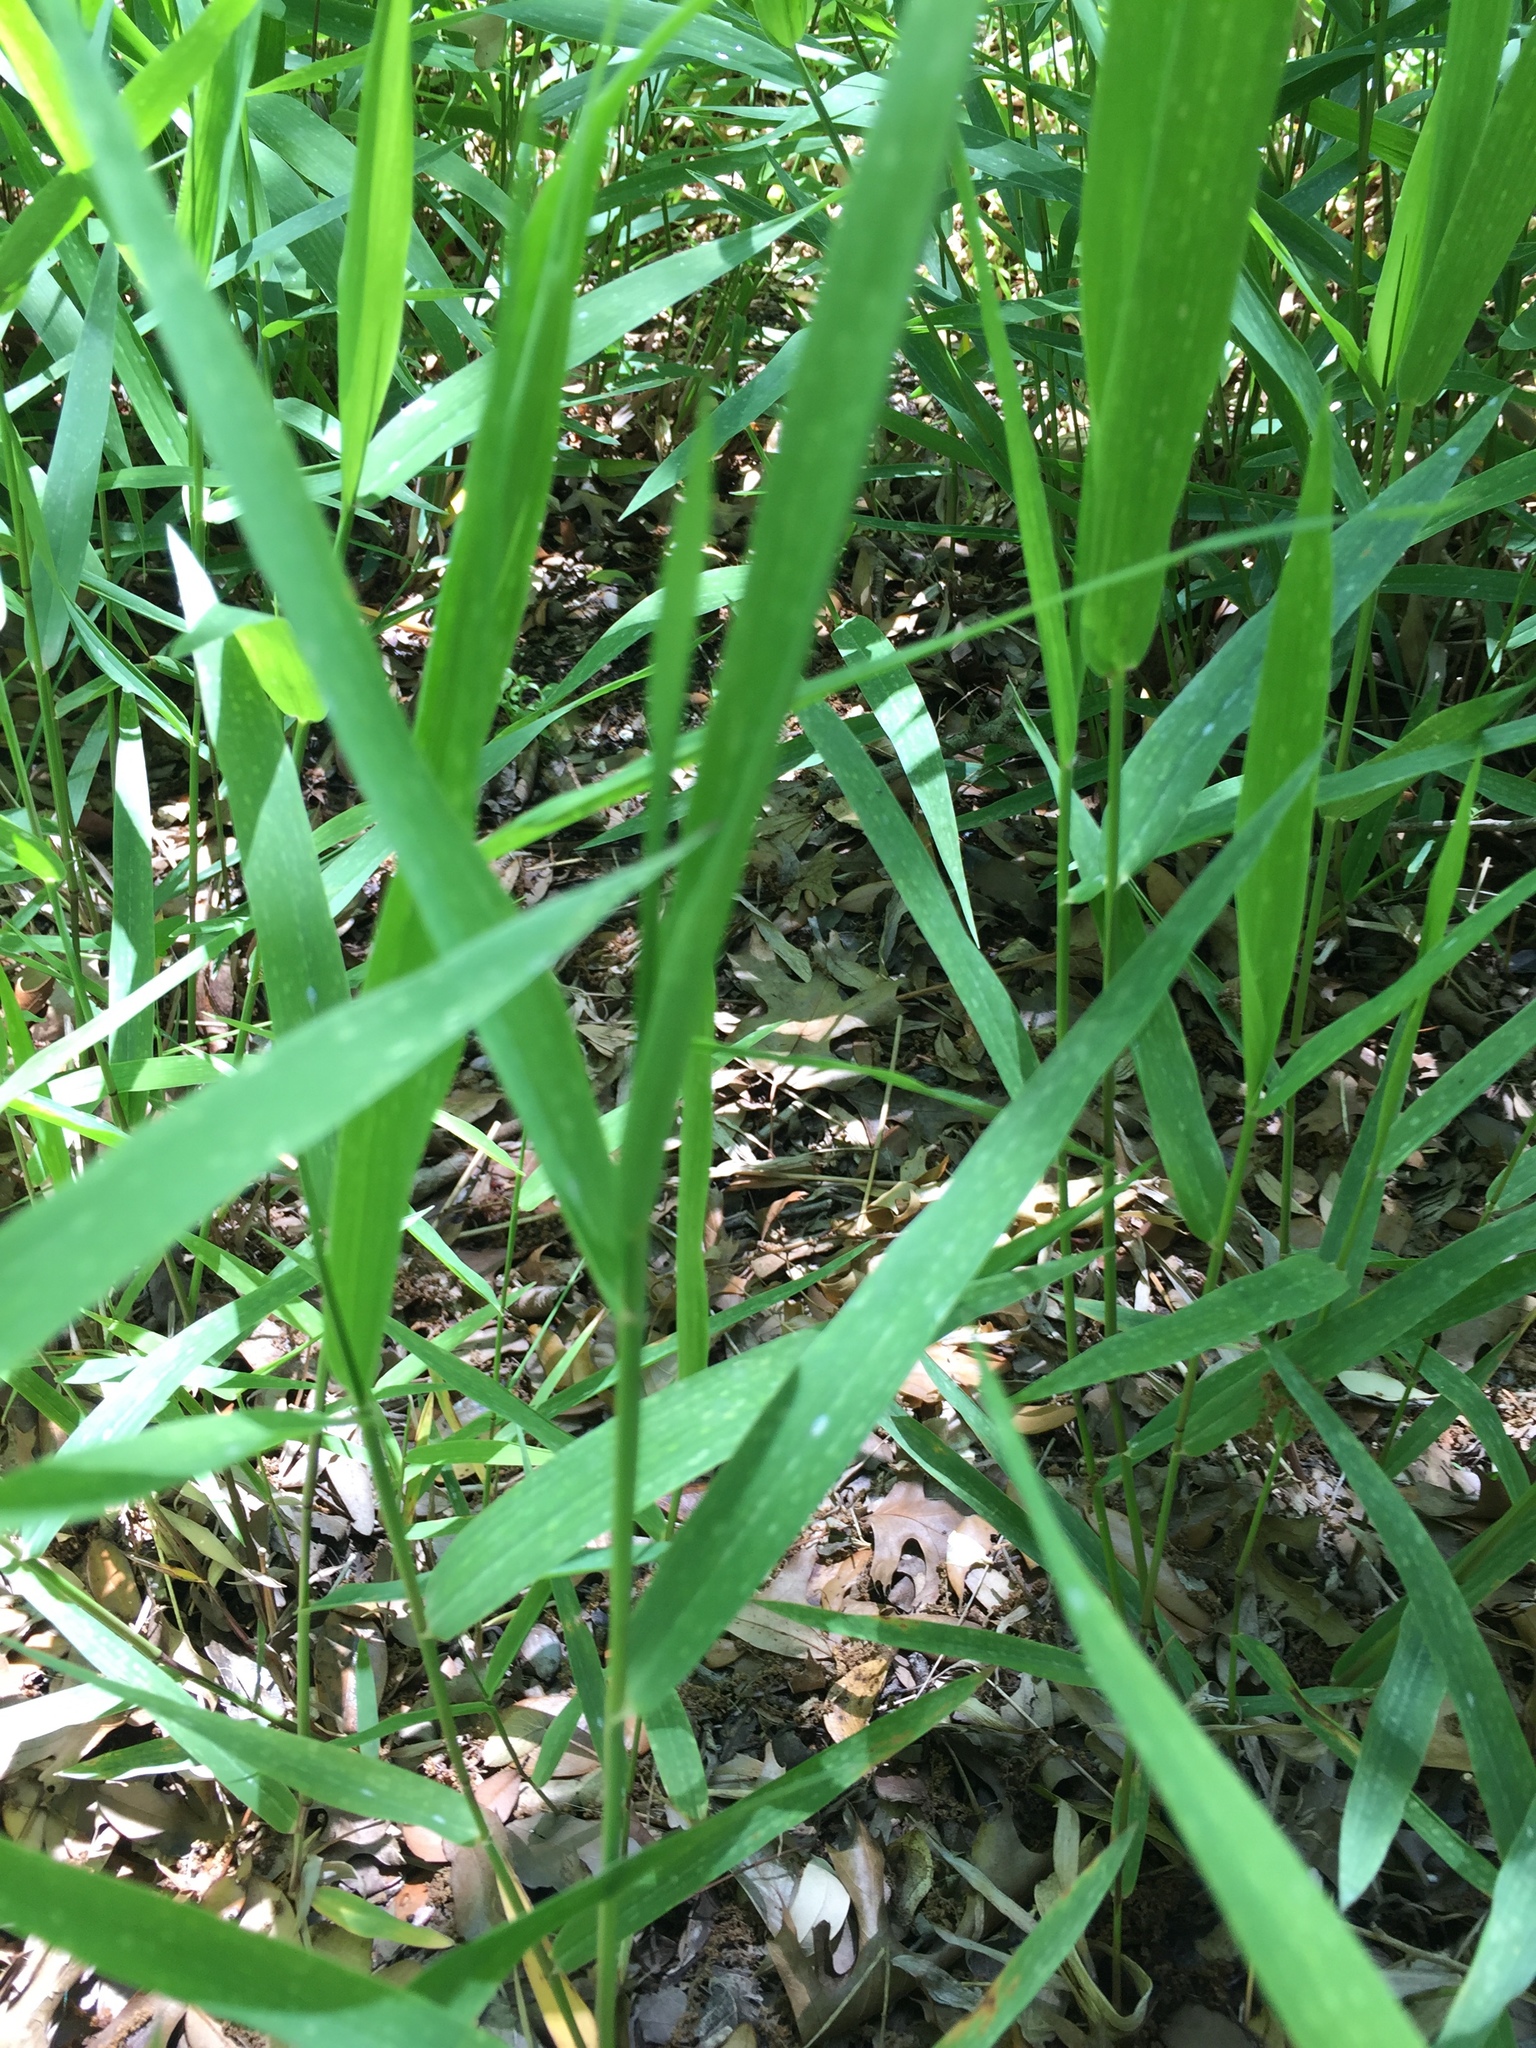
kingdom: Plantae
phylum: Tracheophyta
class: Liliopsida
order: Poales
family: Poaceae
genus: Chasmanthium
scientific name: Chasmanthium latifolium
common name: Broad-leaved chasmanthium
